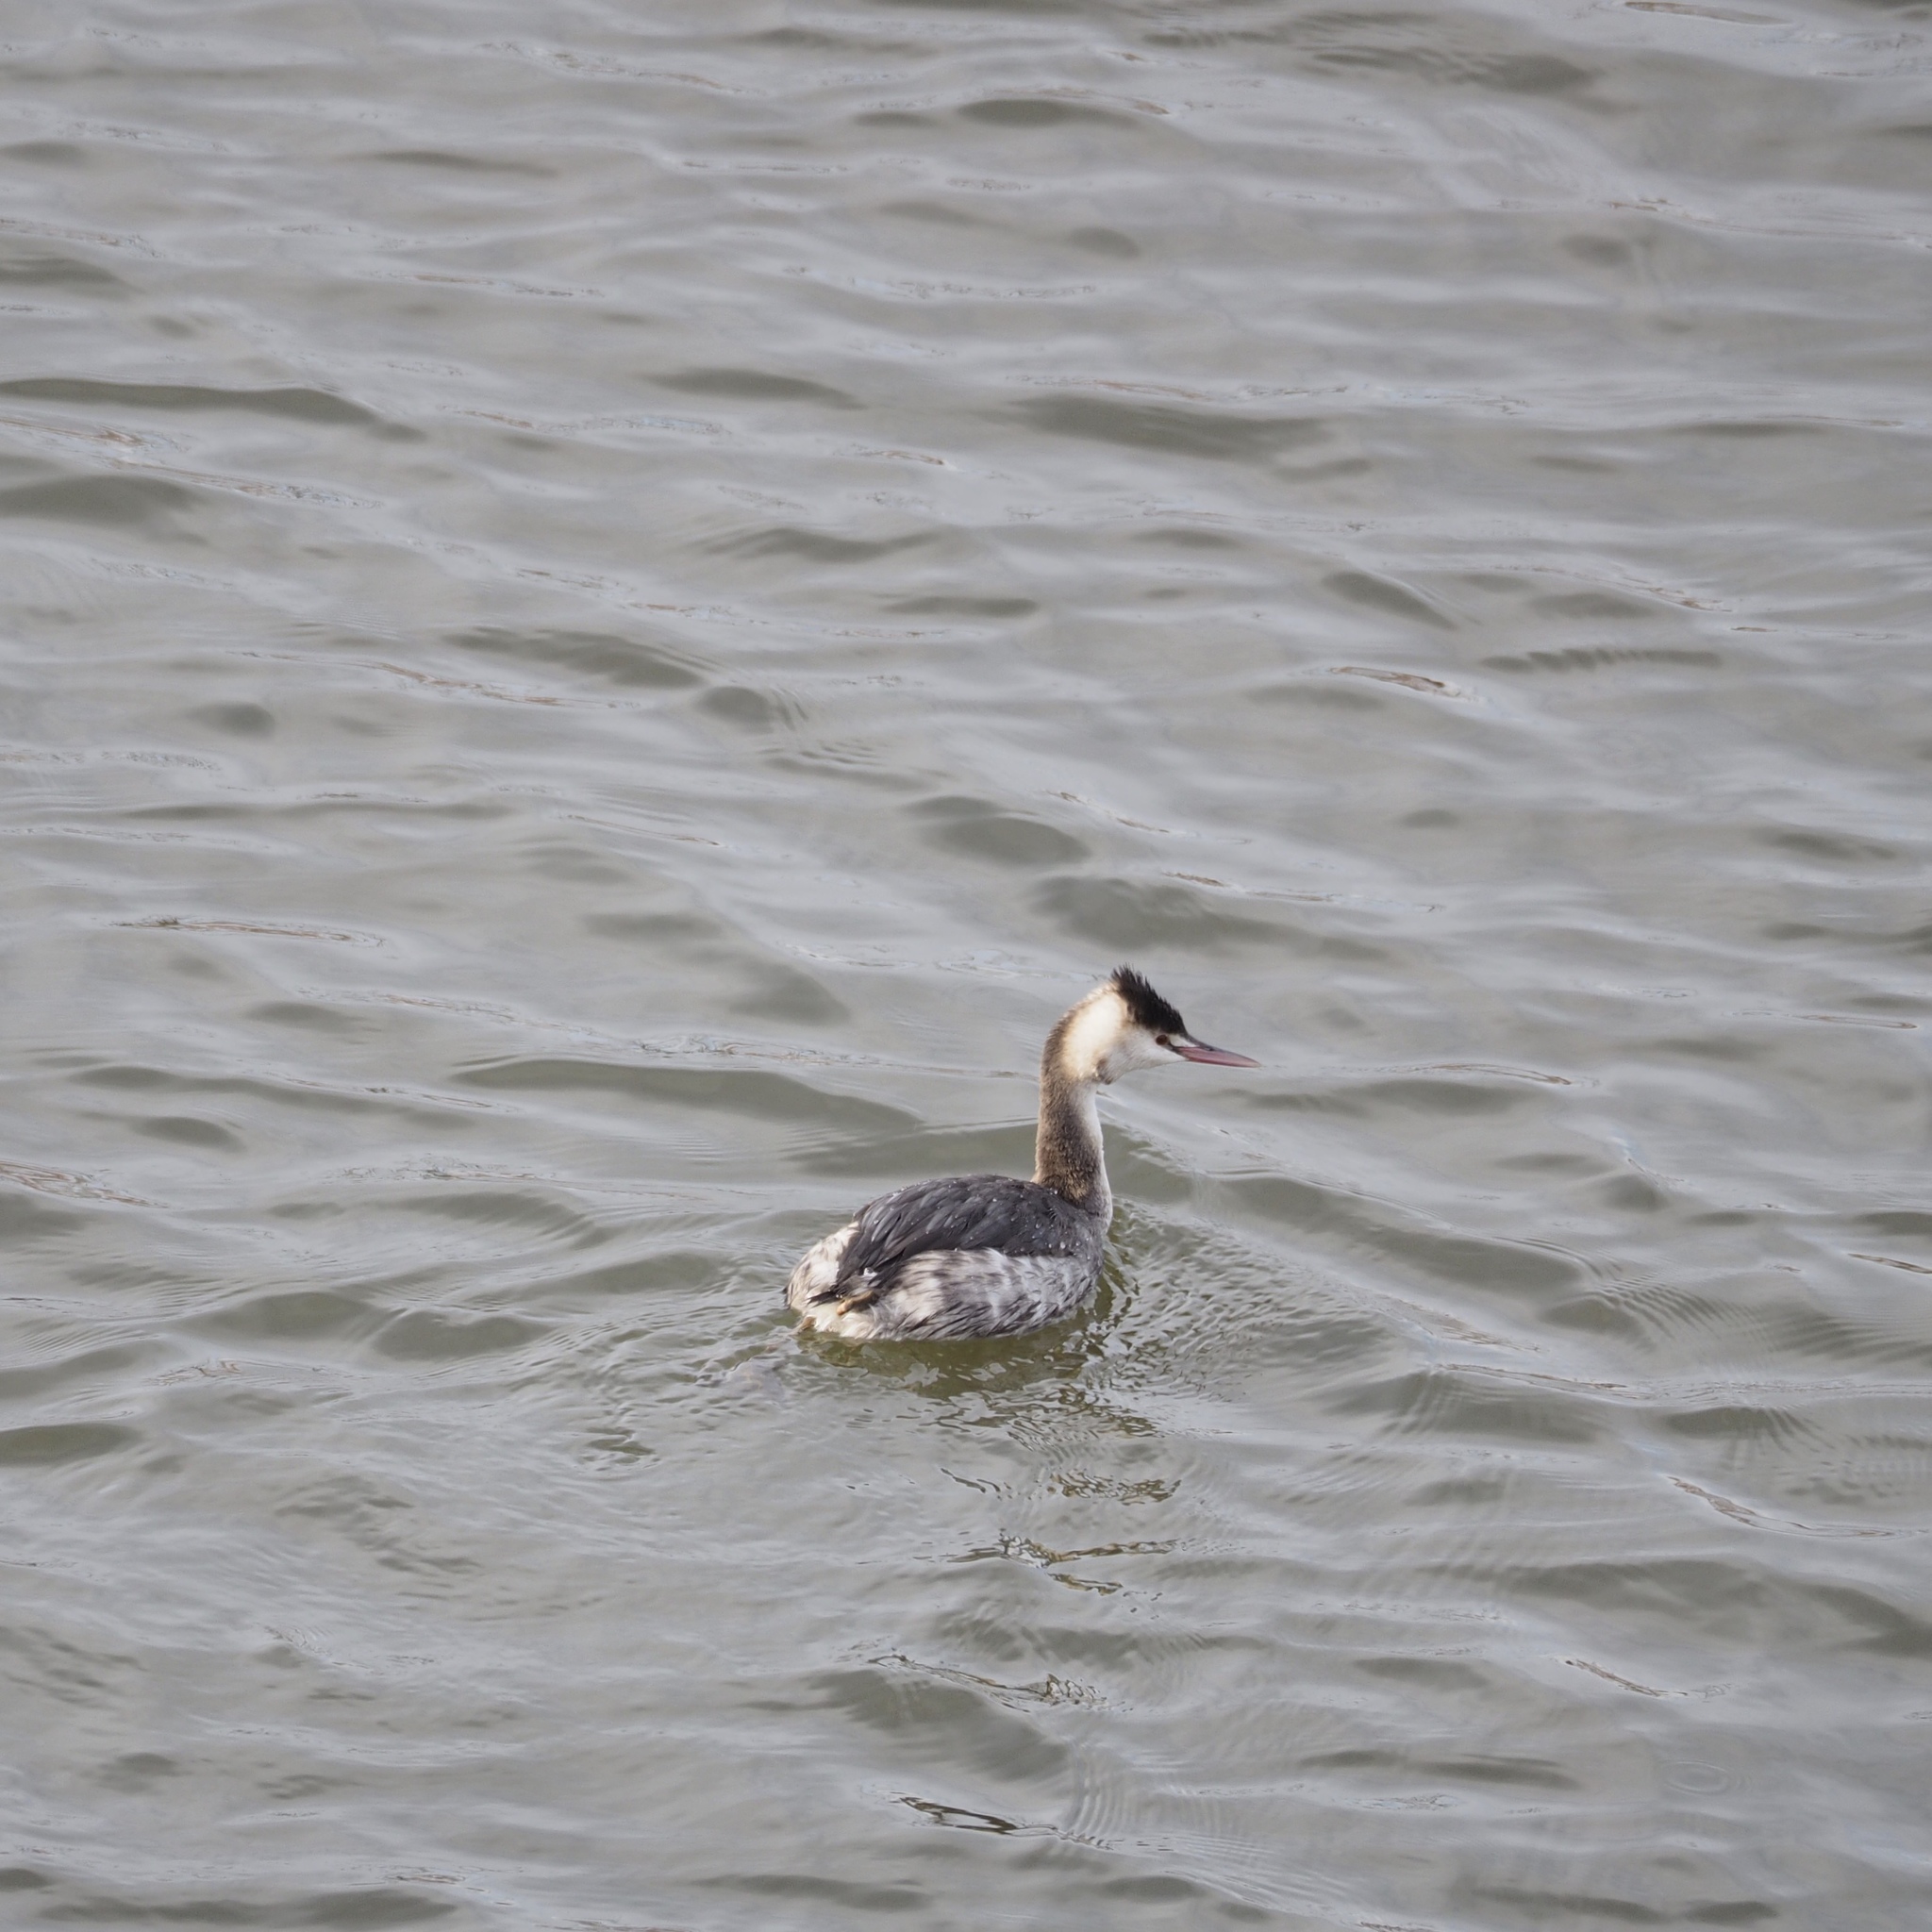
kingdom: Animalia
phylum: Chordata
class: Aves
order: Podicipediformes
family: Podicipedidae
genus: Podiceps
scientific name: Podiceps cristatus
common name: Great crested grebe
